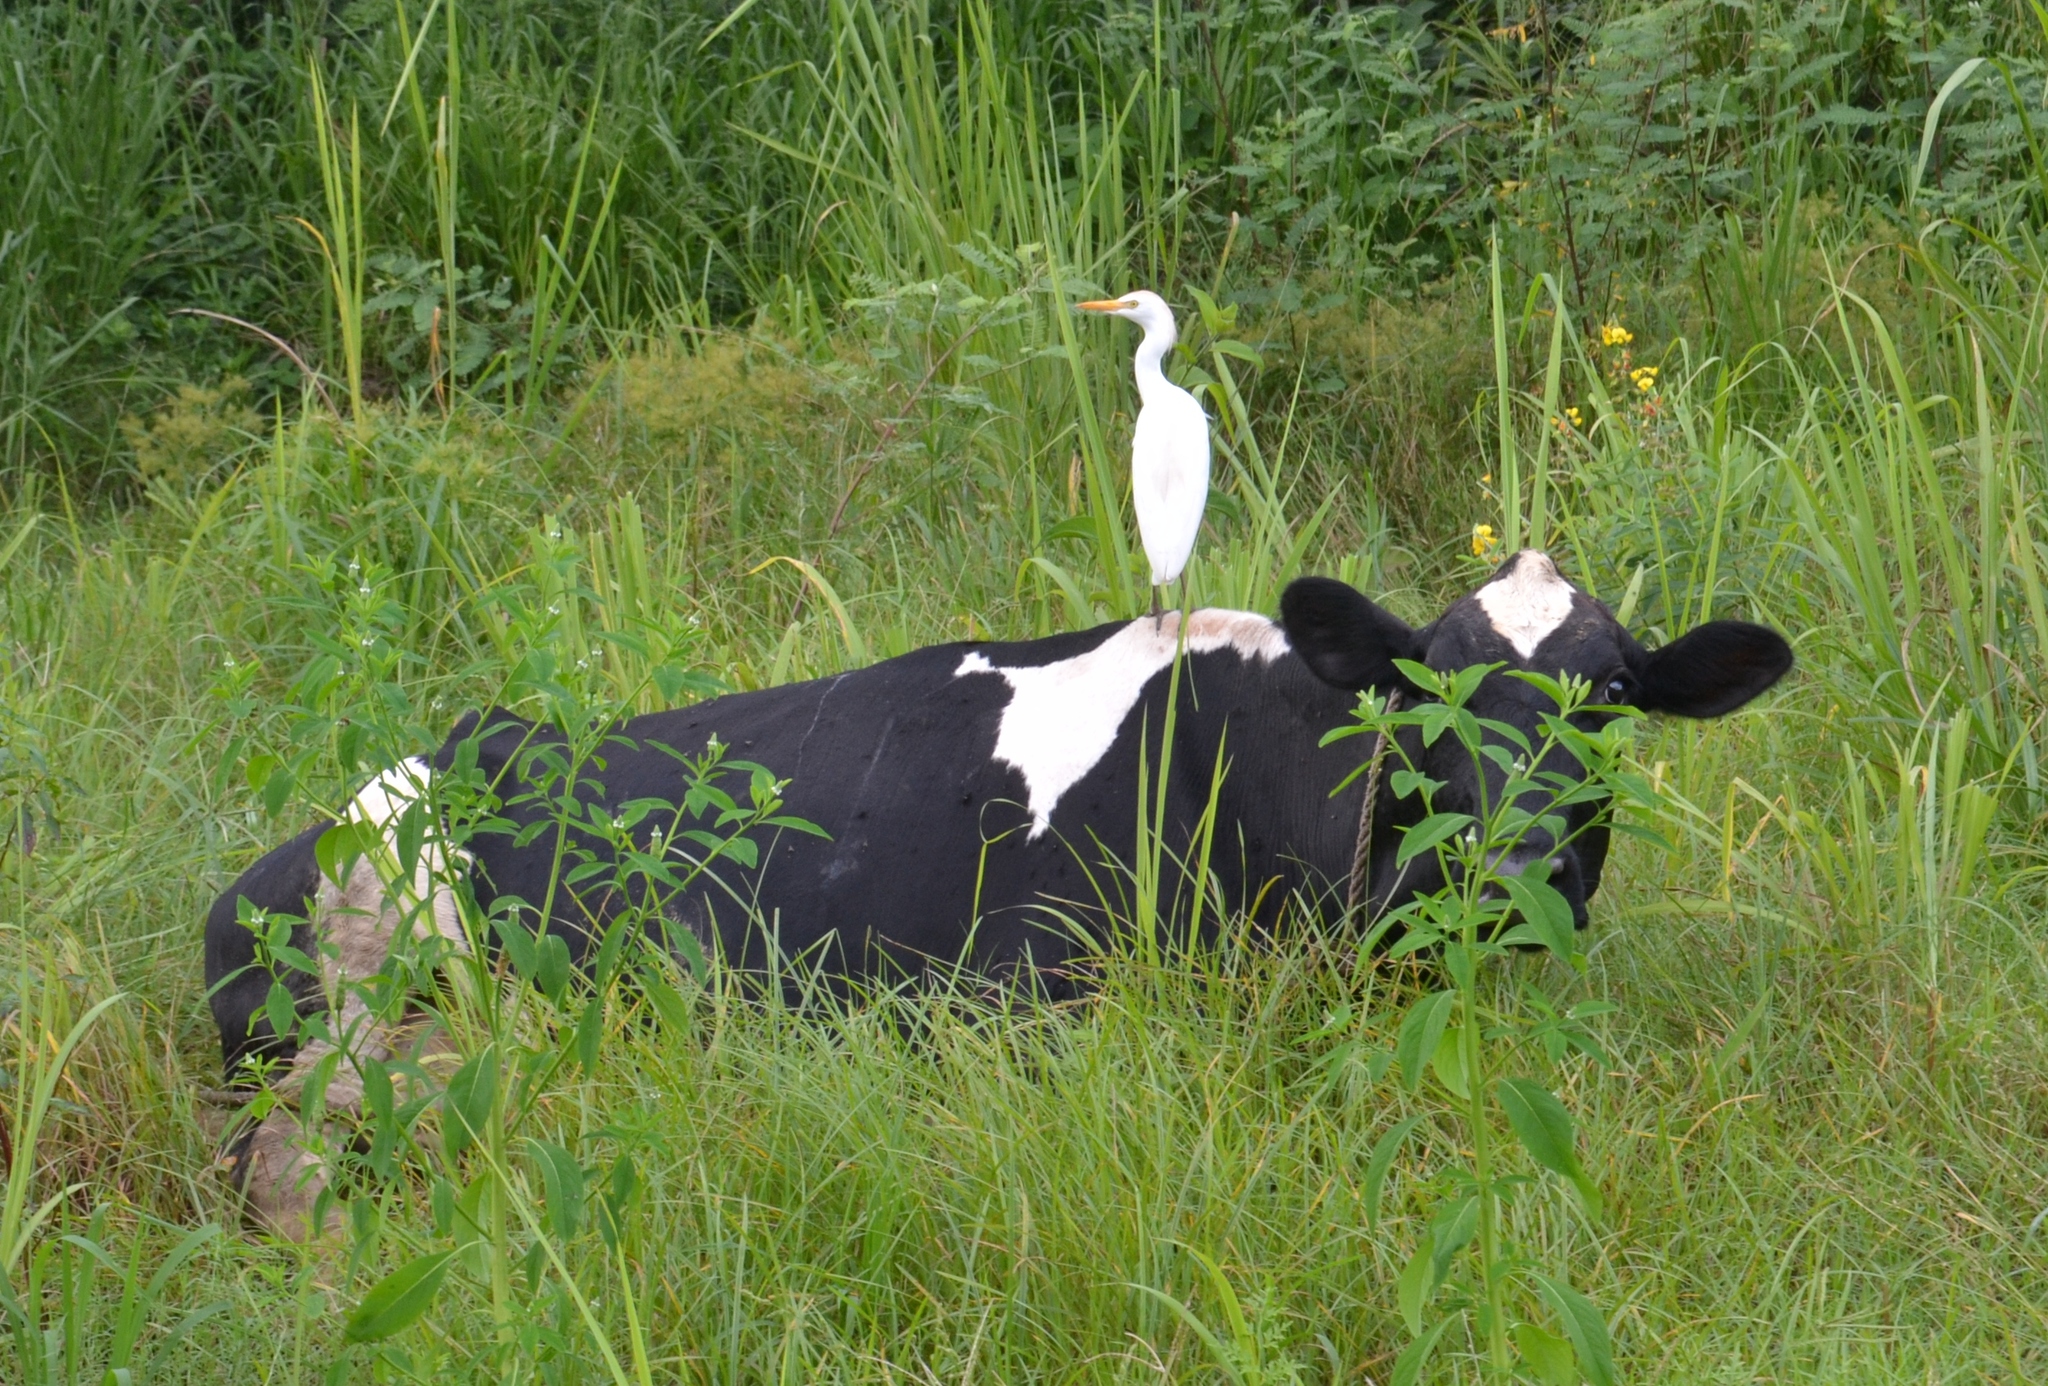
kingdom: Animalia
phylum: Chordata
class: Aves
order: Pelecaniformes
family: Ardeidae
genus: Bubulcus
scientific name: Bubulcus ibis
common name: Cattle egret
